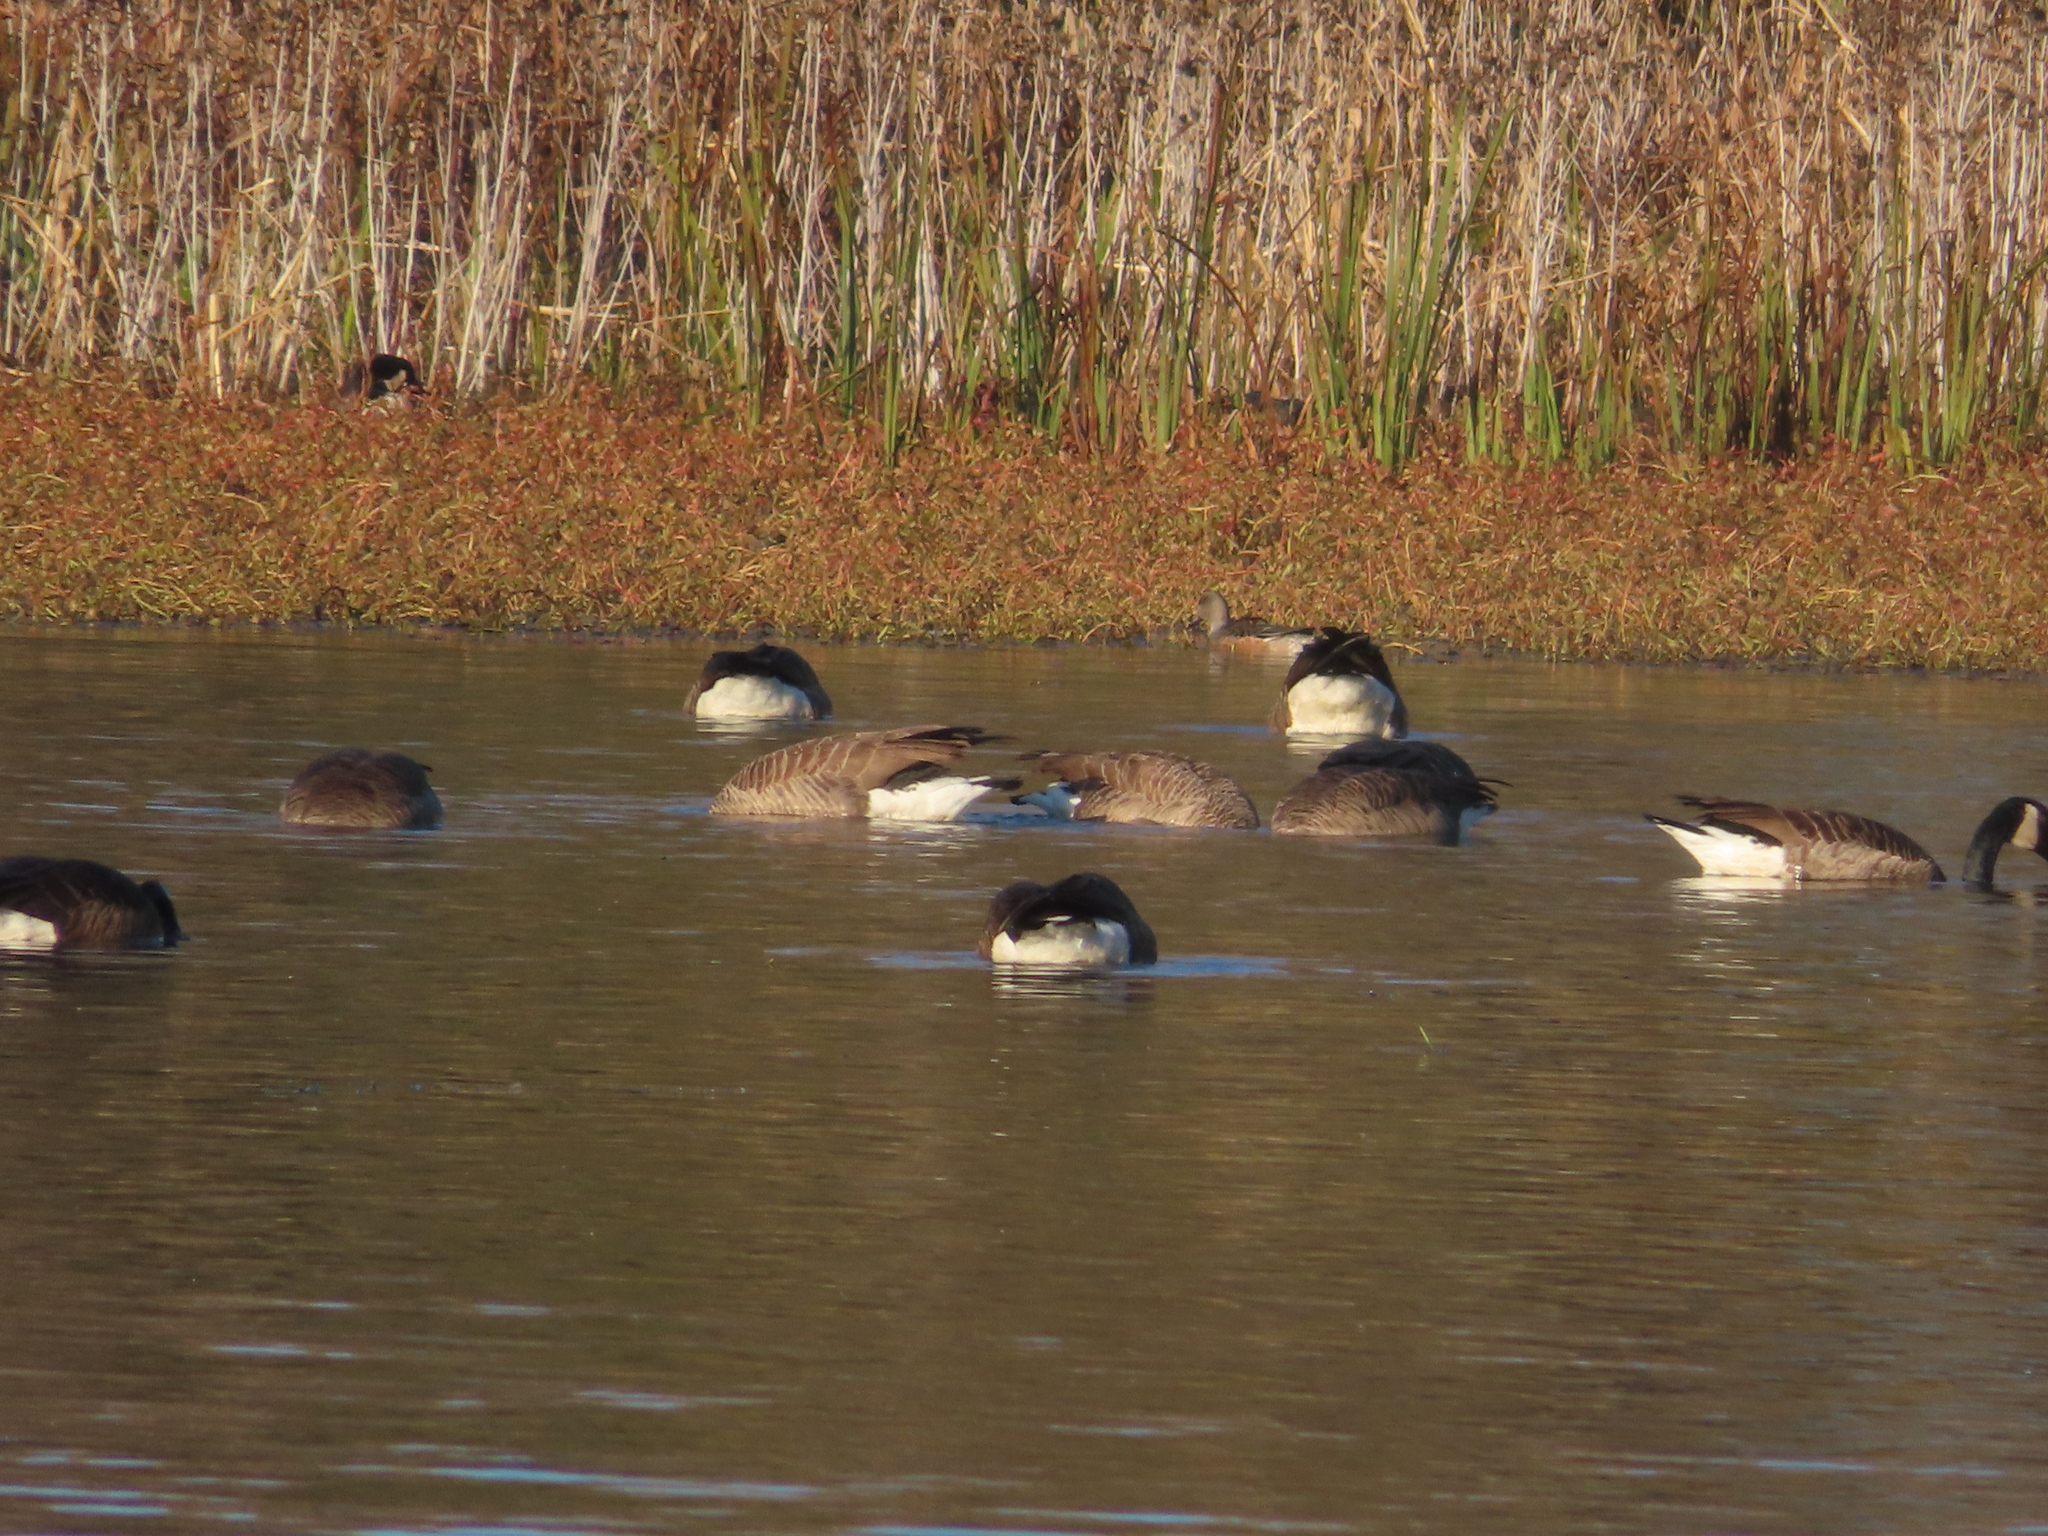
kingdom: Animalia
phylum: Chordata
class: Aves
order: Anseriformes
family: Anatidae
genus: Branta
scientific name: Branta canadensis
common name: Canada goose
